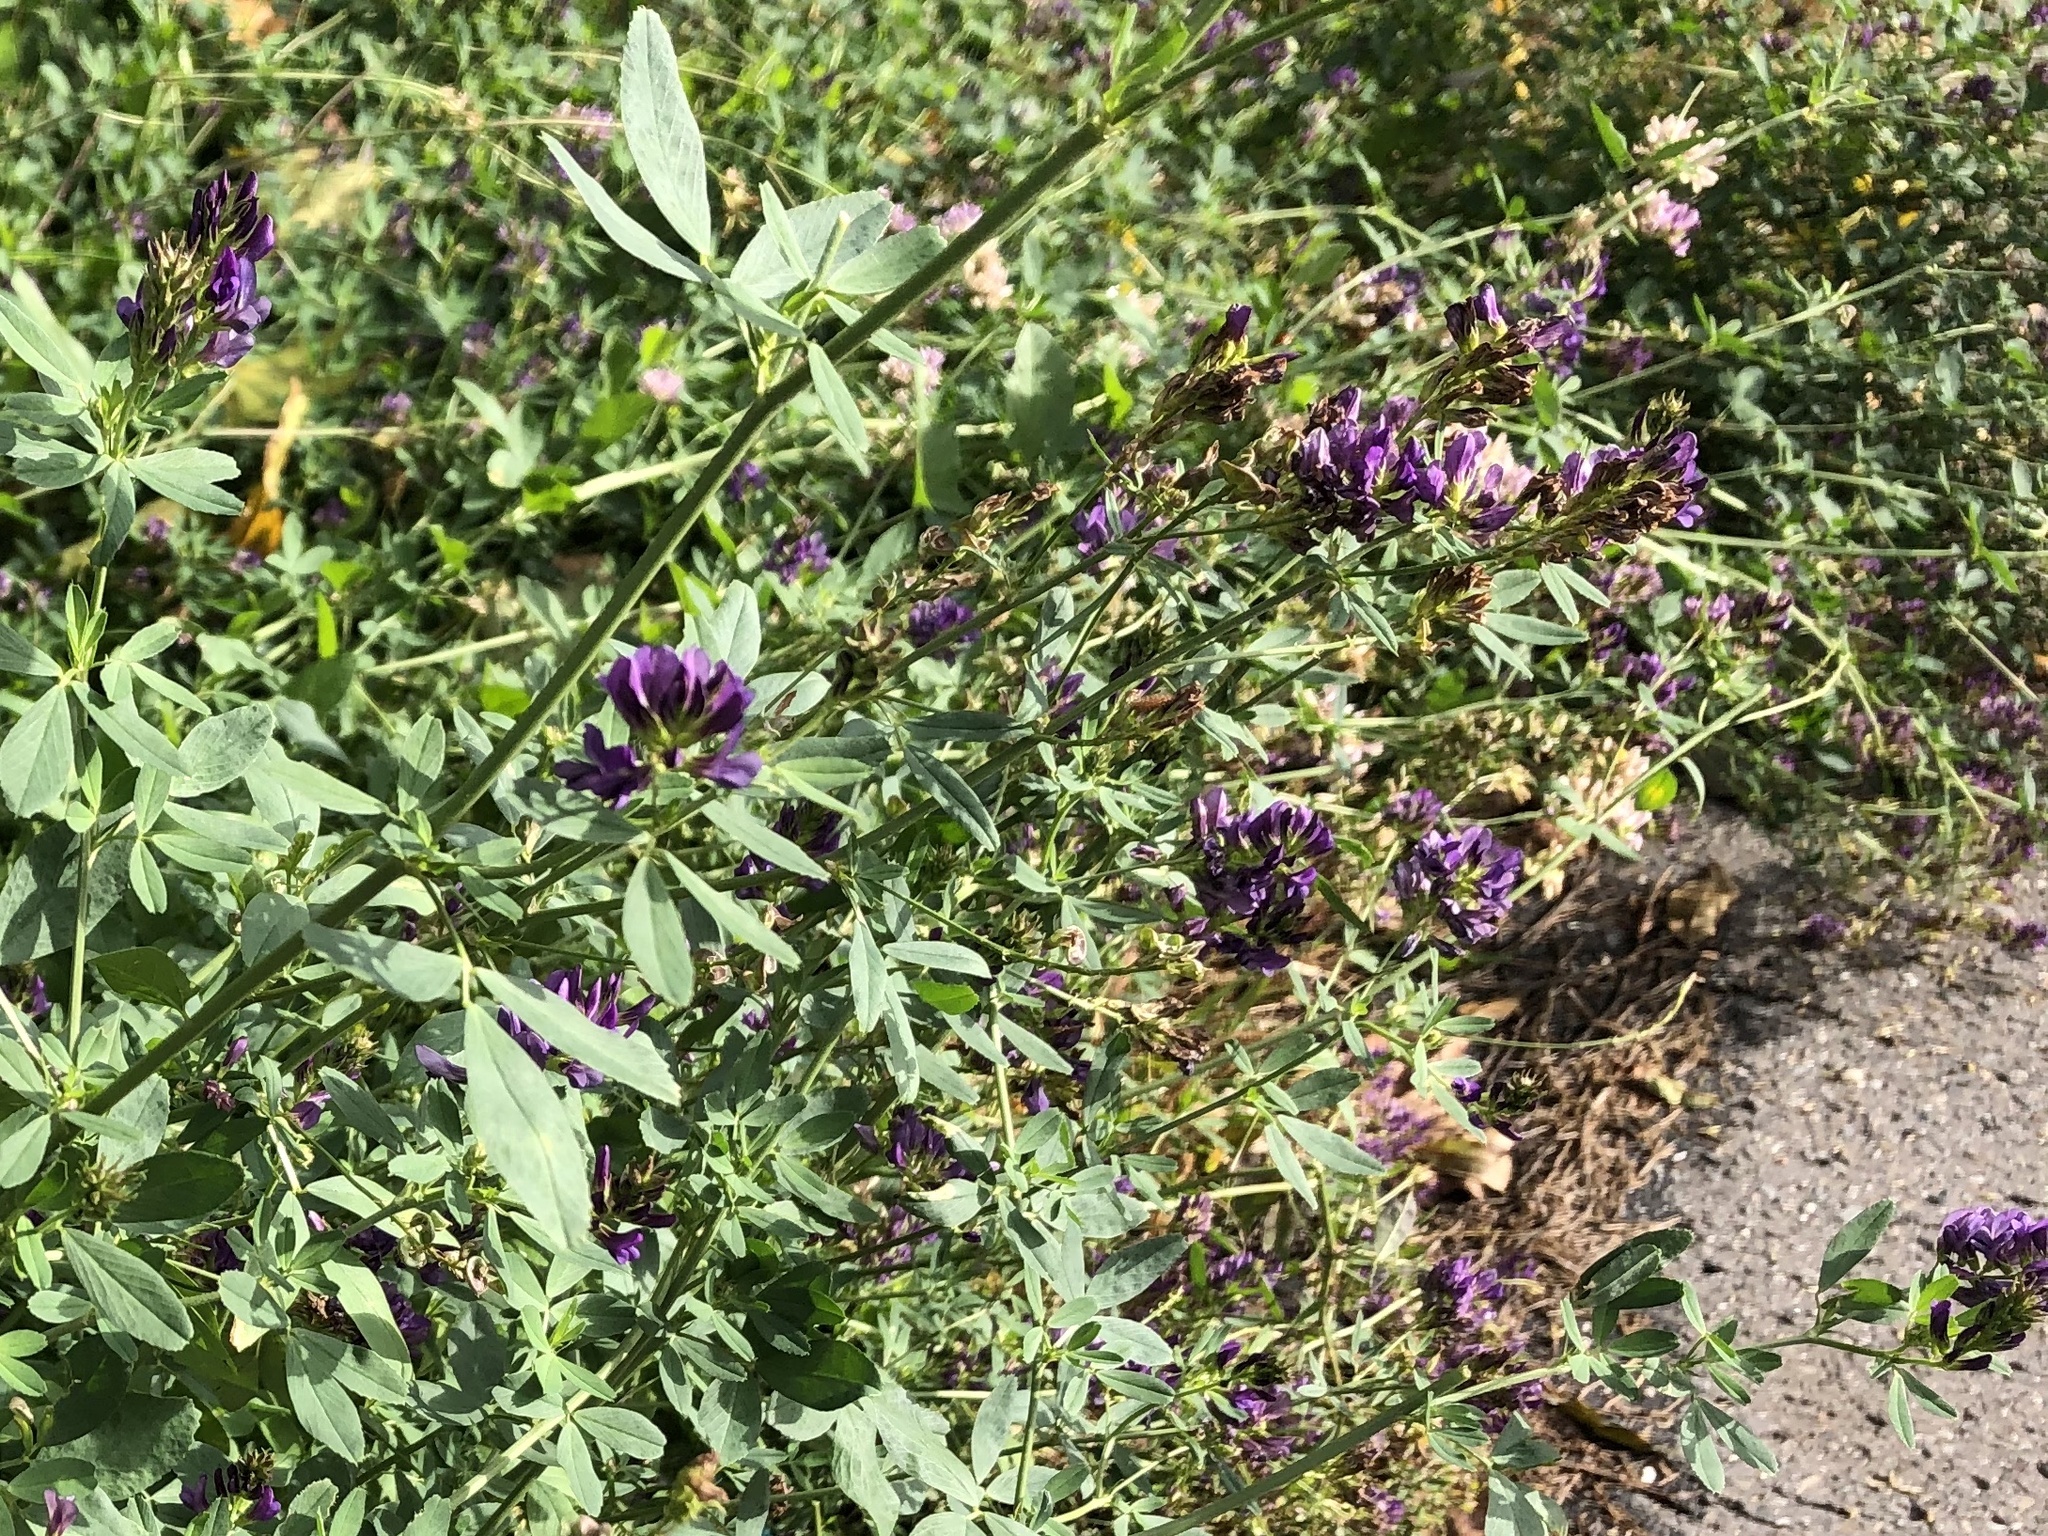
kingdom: Plantae
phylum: Tracheophyta
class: Magnoliopsida
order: Fabales
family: Fabaceae
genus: Medicago
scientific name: Medicago sativa
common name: Alfalfa
